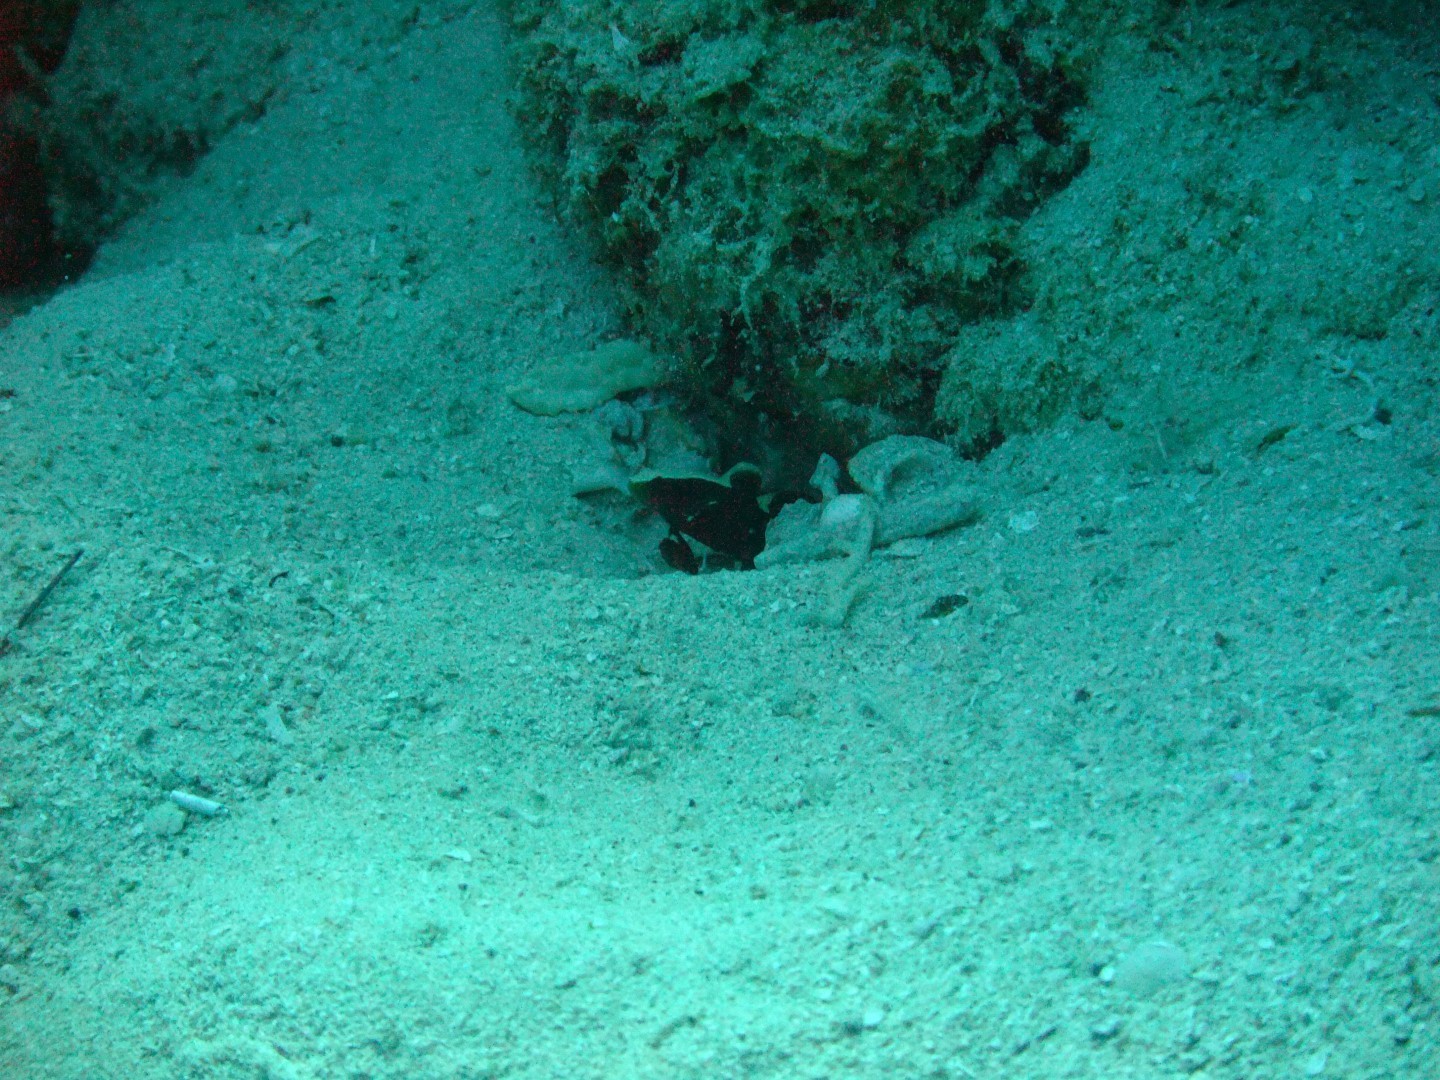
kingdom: Animalia
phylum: Chordata
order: Perciformes
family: Gobiidae
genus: Lotilia
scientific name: Lotilia graciliosa
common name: Whitecap goby
